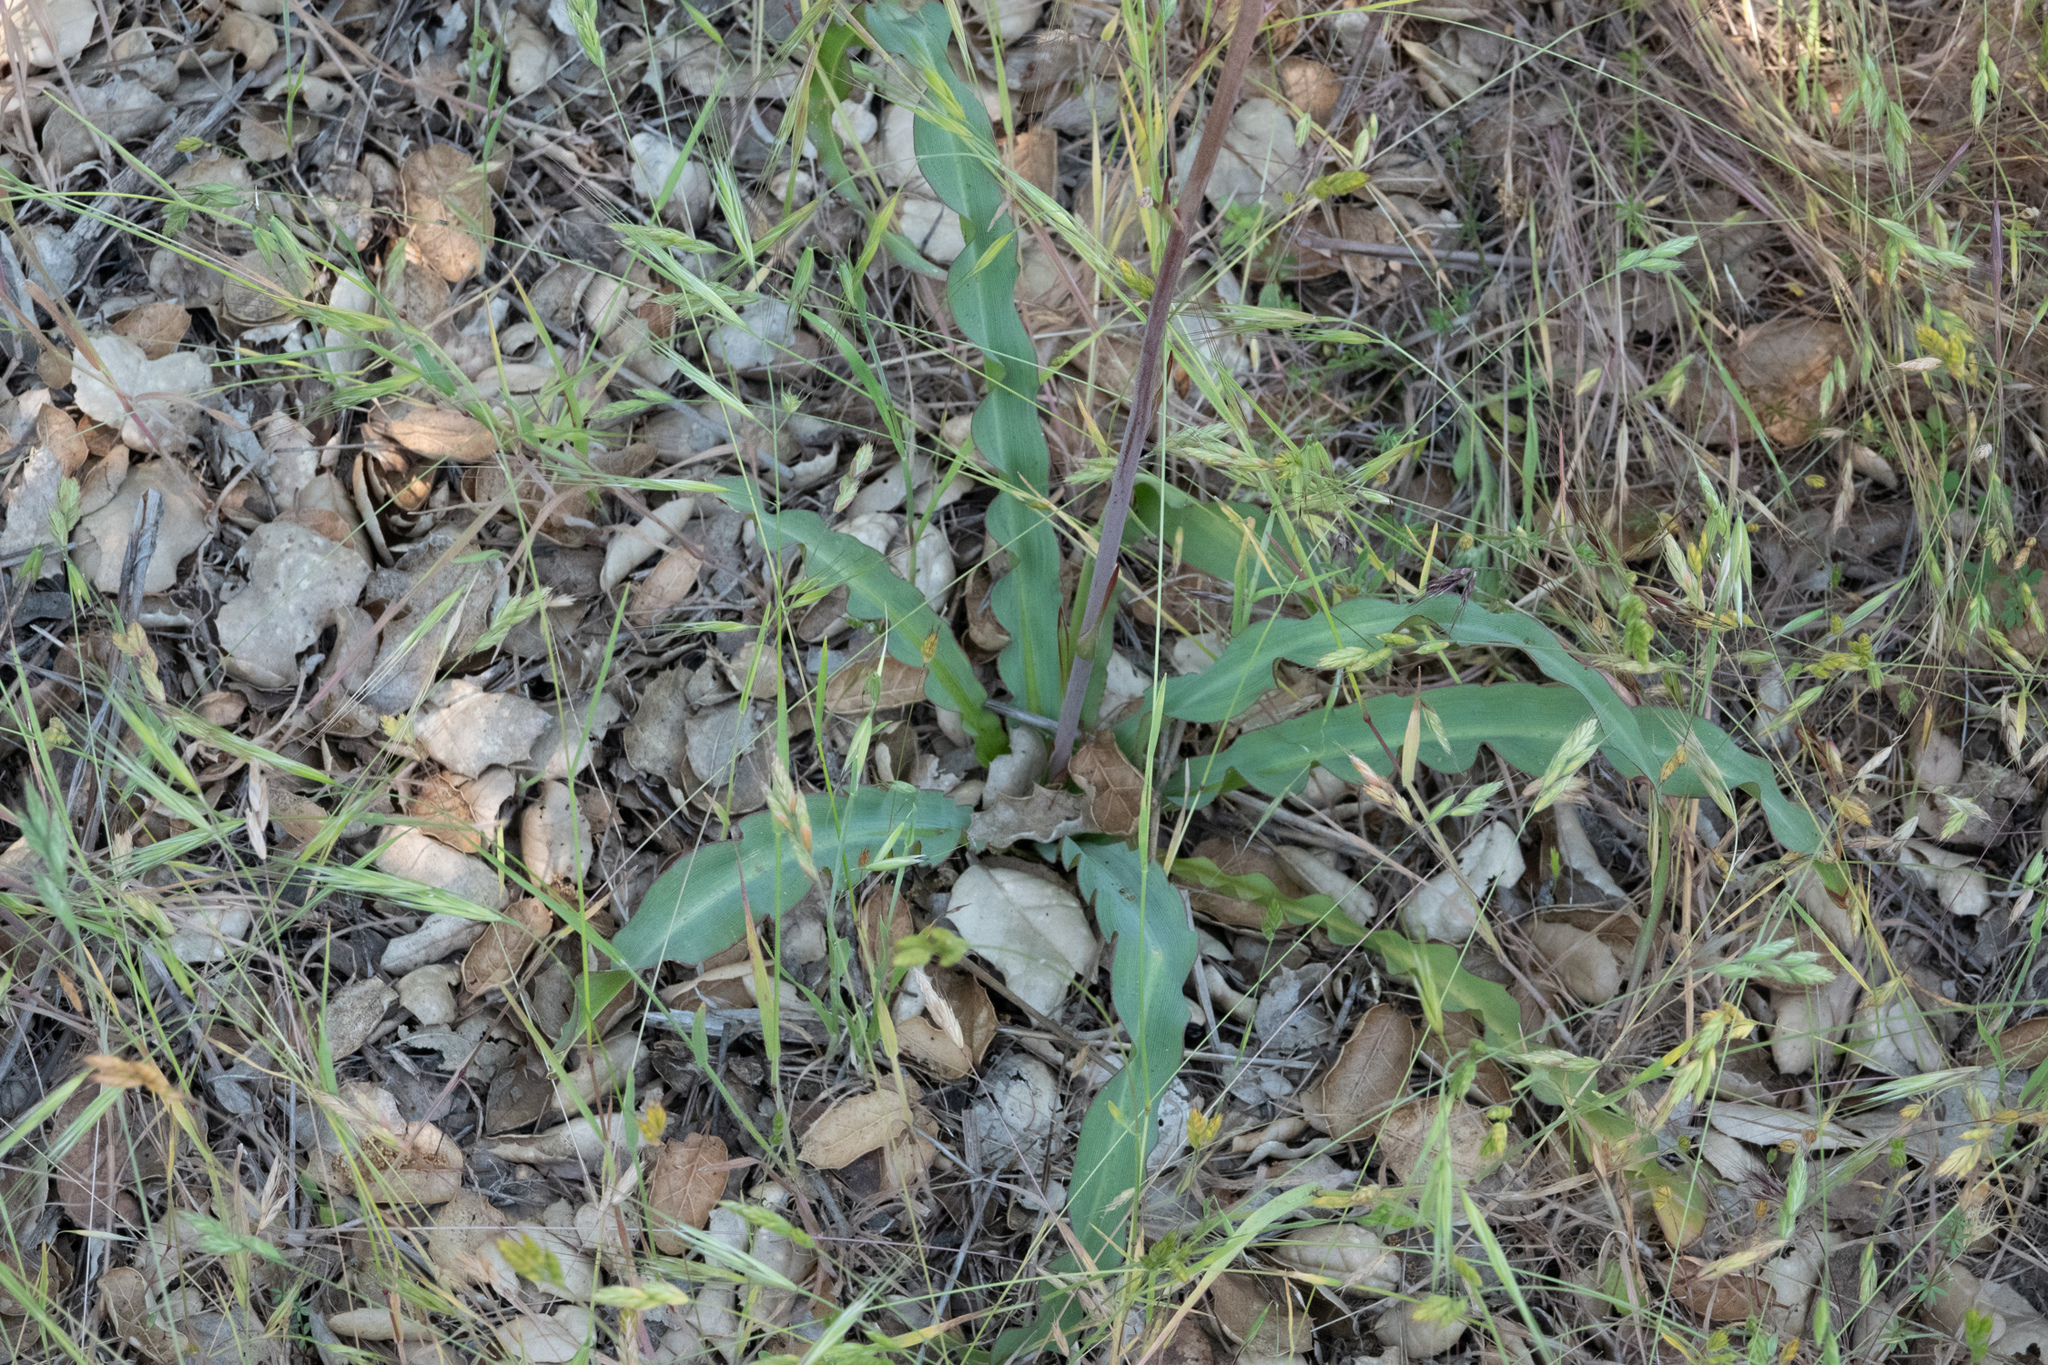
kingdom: Plantae
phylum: Tracheophyta
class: Liliopsida
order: Asparagales
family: Asparagaceae
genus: Chlorogalum
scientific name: Chlorogalum pomeridianum
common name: Amole
